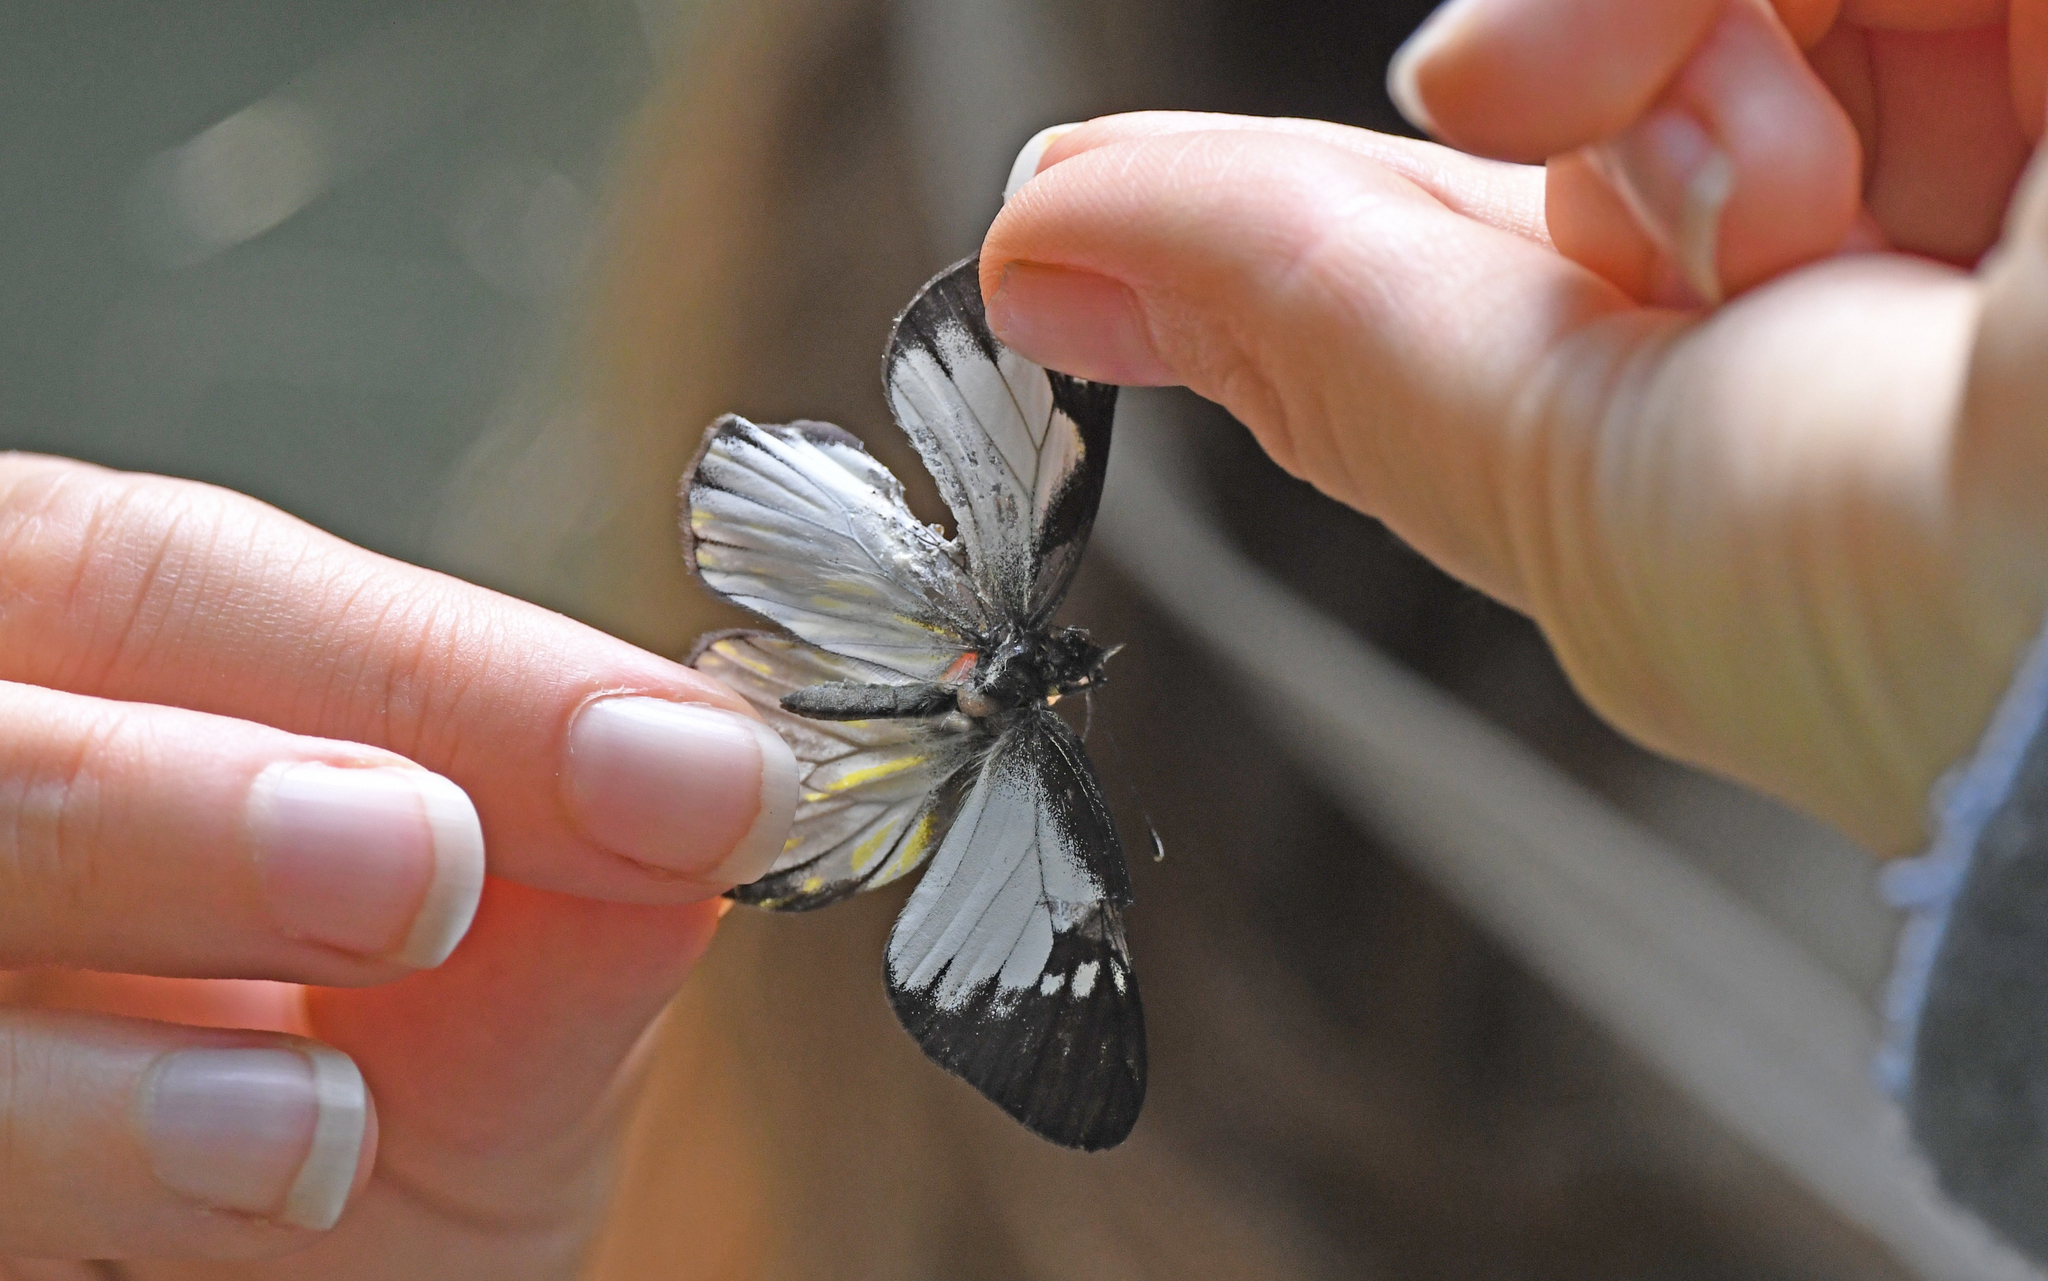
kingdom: Animalia
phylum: Arthropoda
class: Insecta
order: Lepidoptera
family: Pieridae
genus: Catasticta
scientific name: Catasticta notha
